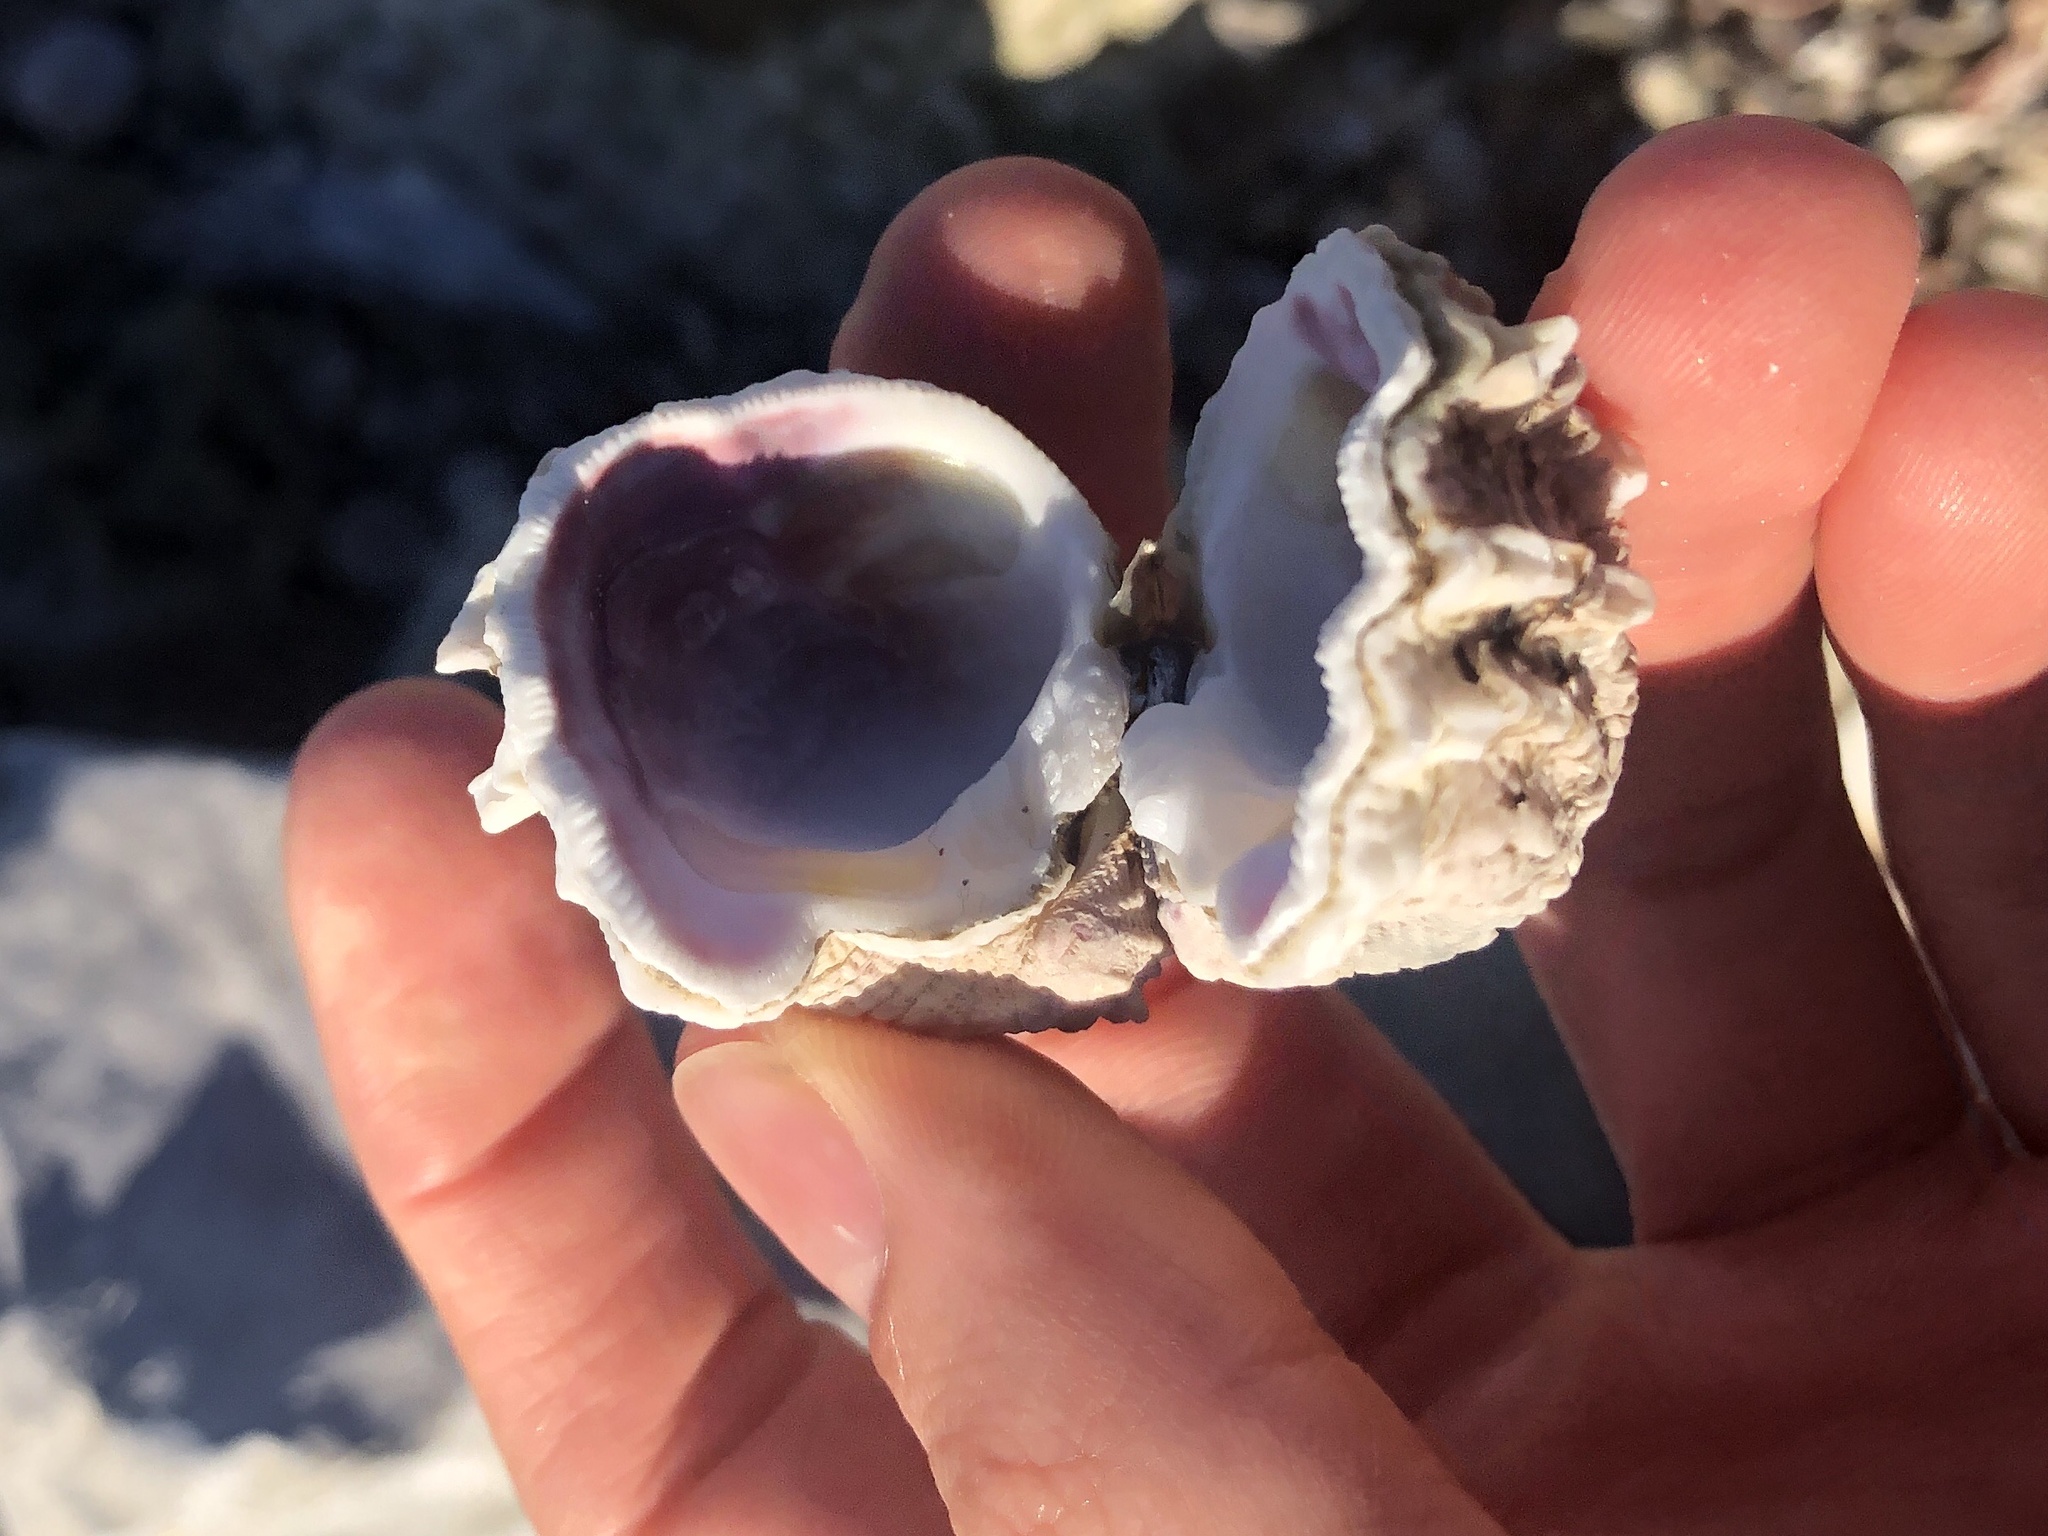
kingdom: Animalia
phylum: Mollusca
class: Bivalvia
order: Venerida
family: Chamidae
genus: Arcinella
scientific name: Arcinella cornuta
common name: Florida spiny jewel box
